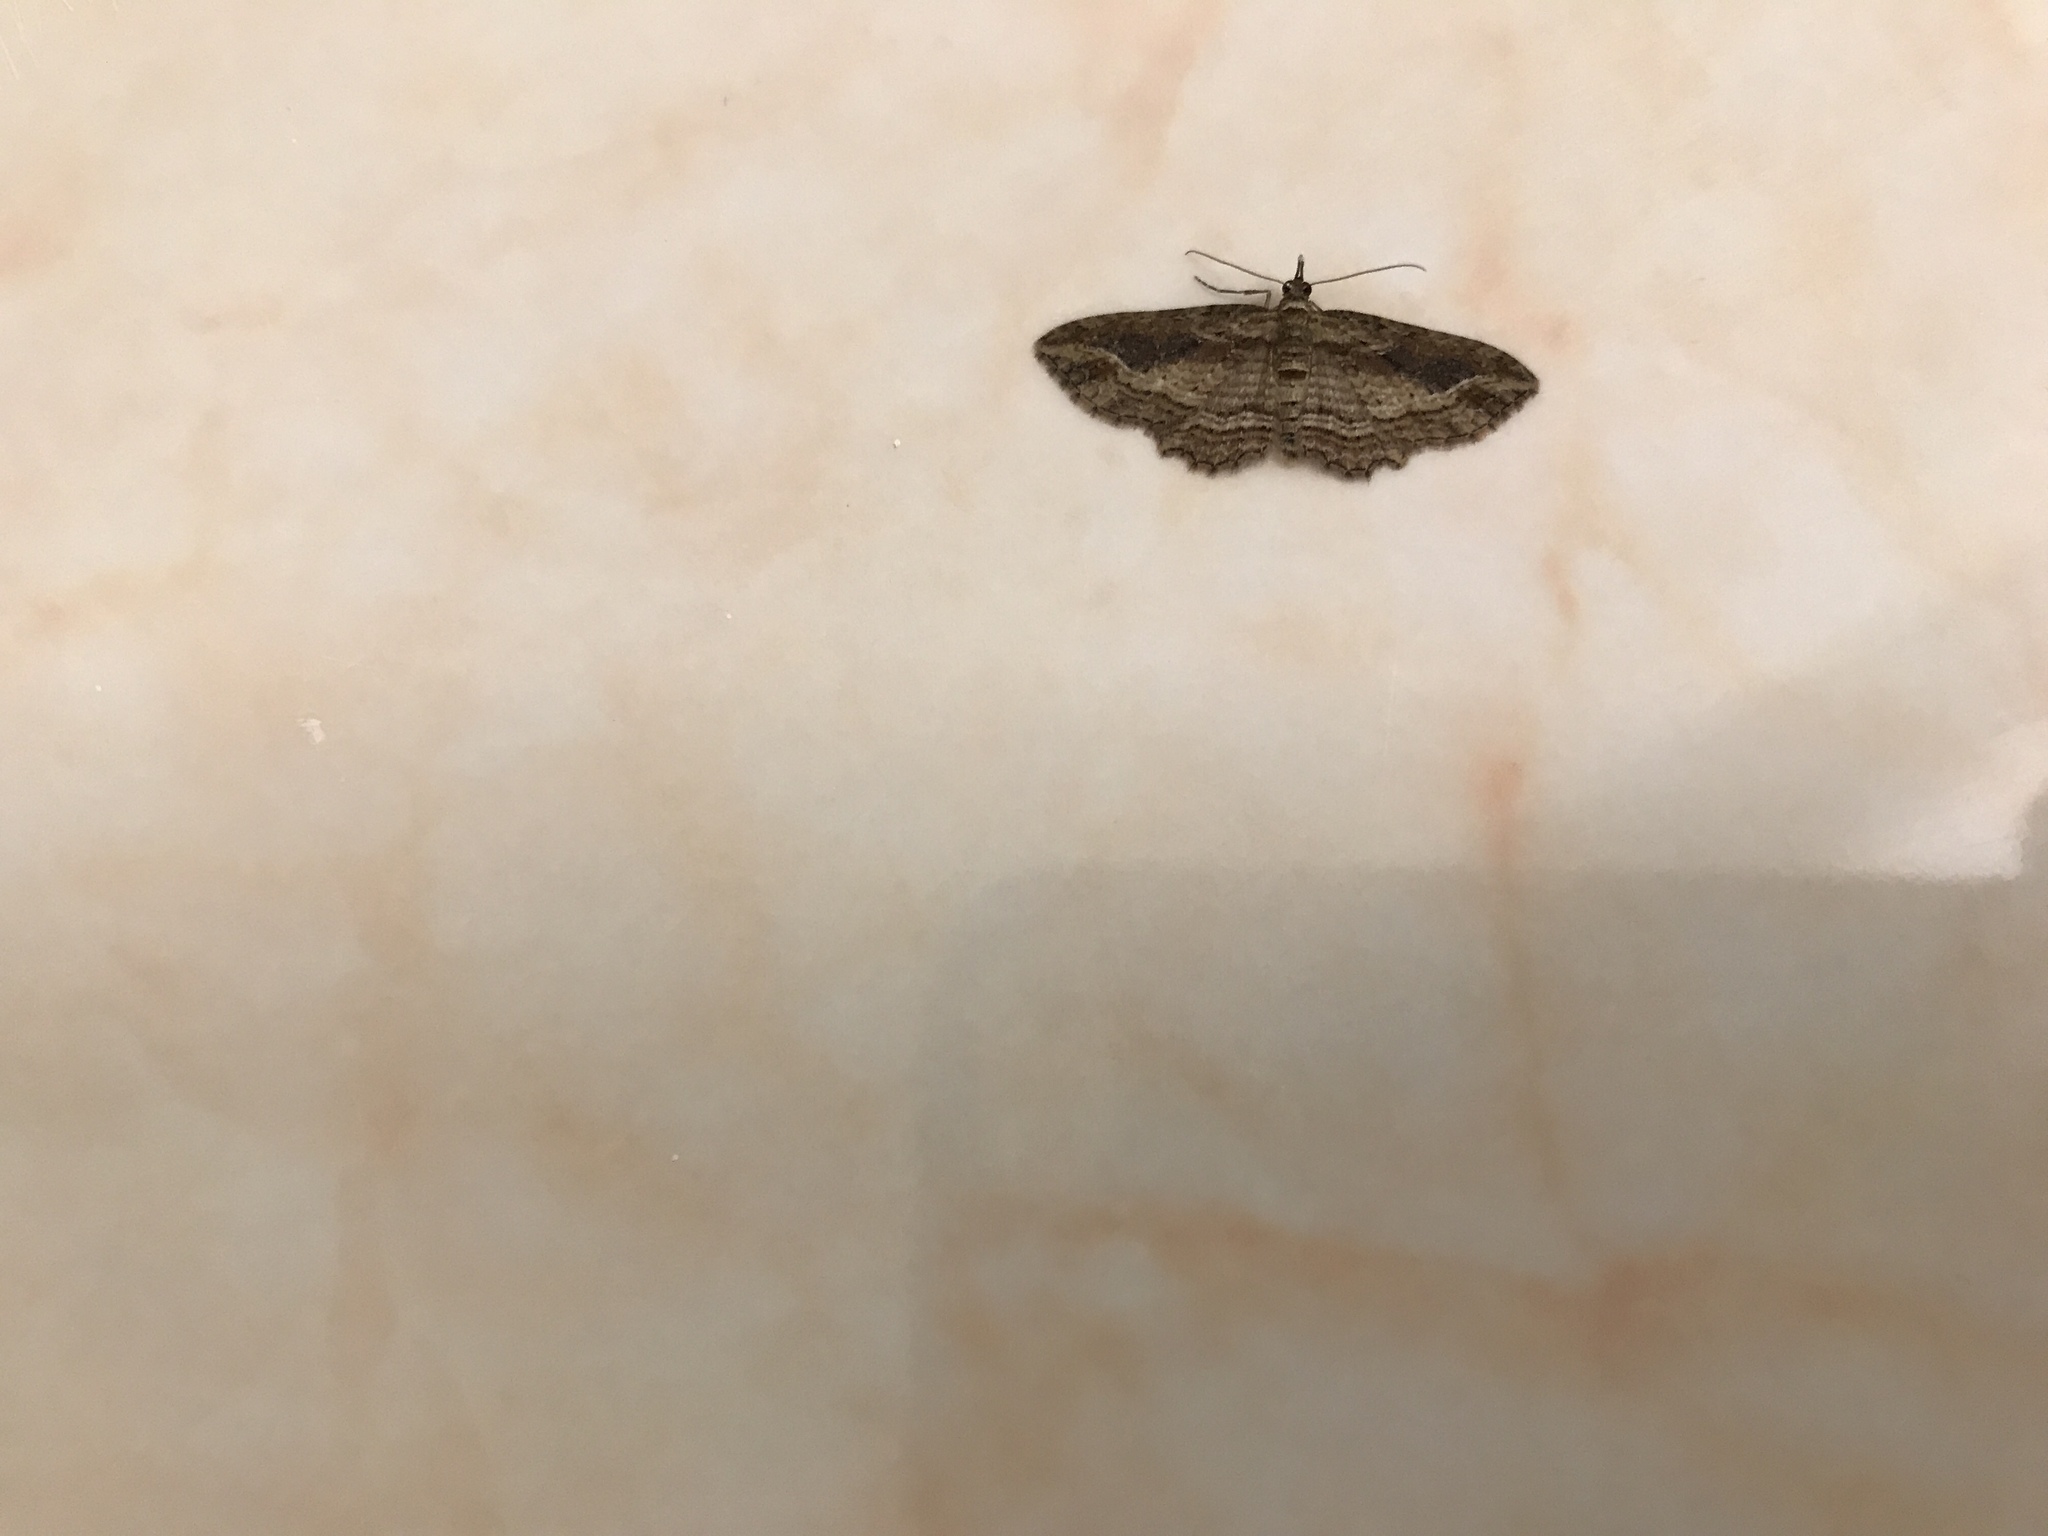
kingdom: Animalia
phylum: Arthropoda
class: Insecta
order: Lepidoptera
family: Geometridae
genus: Chloroclystis
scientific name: Chloroclystis filata
